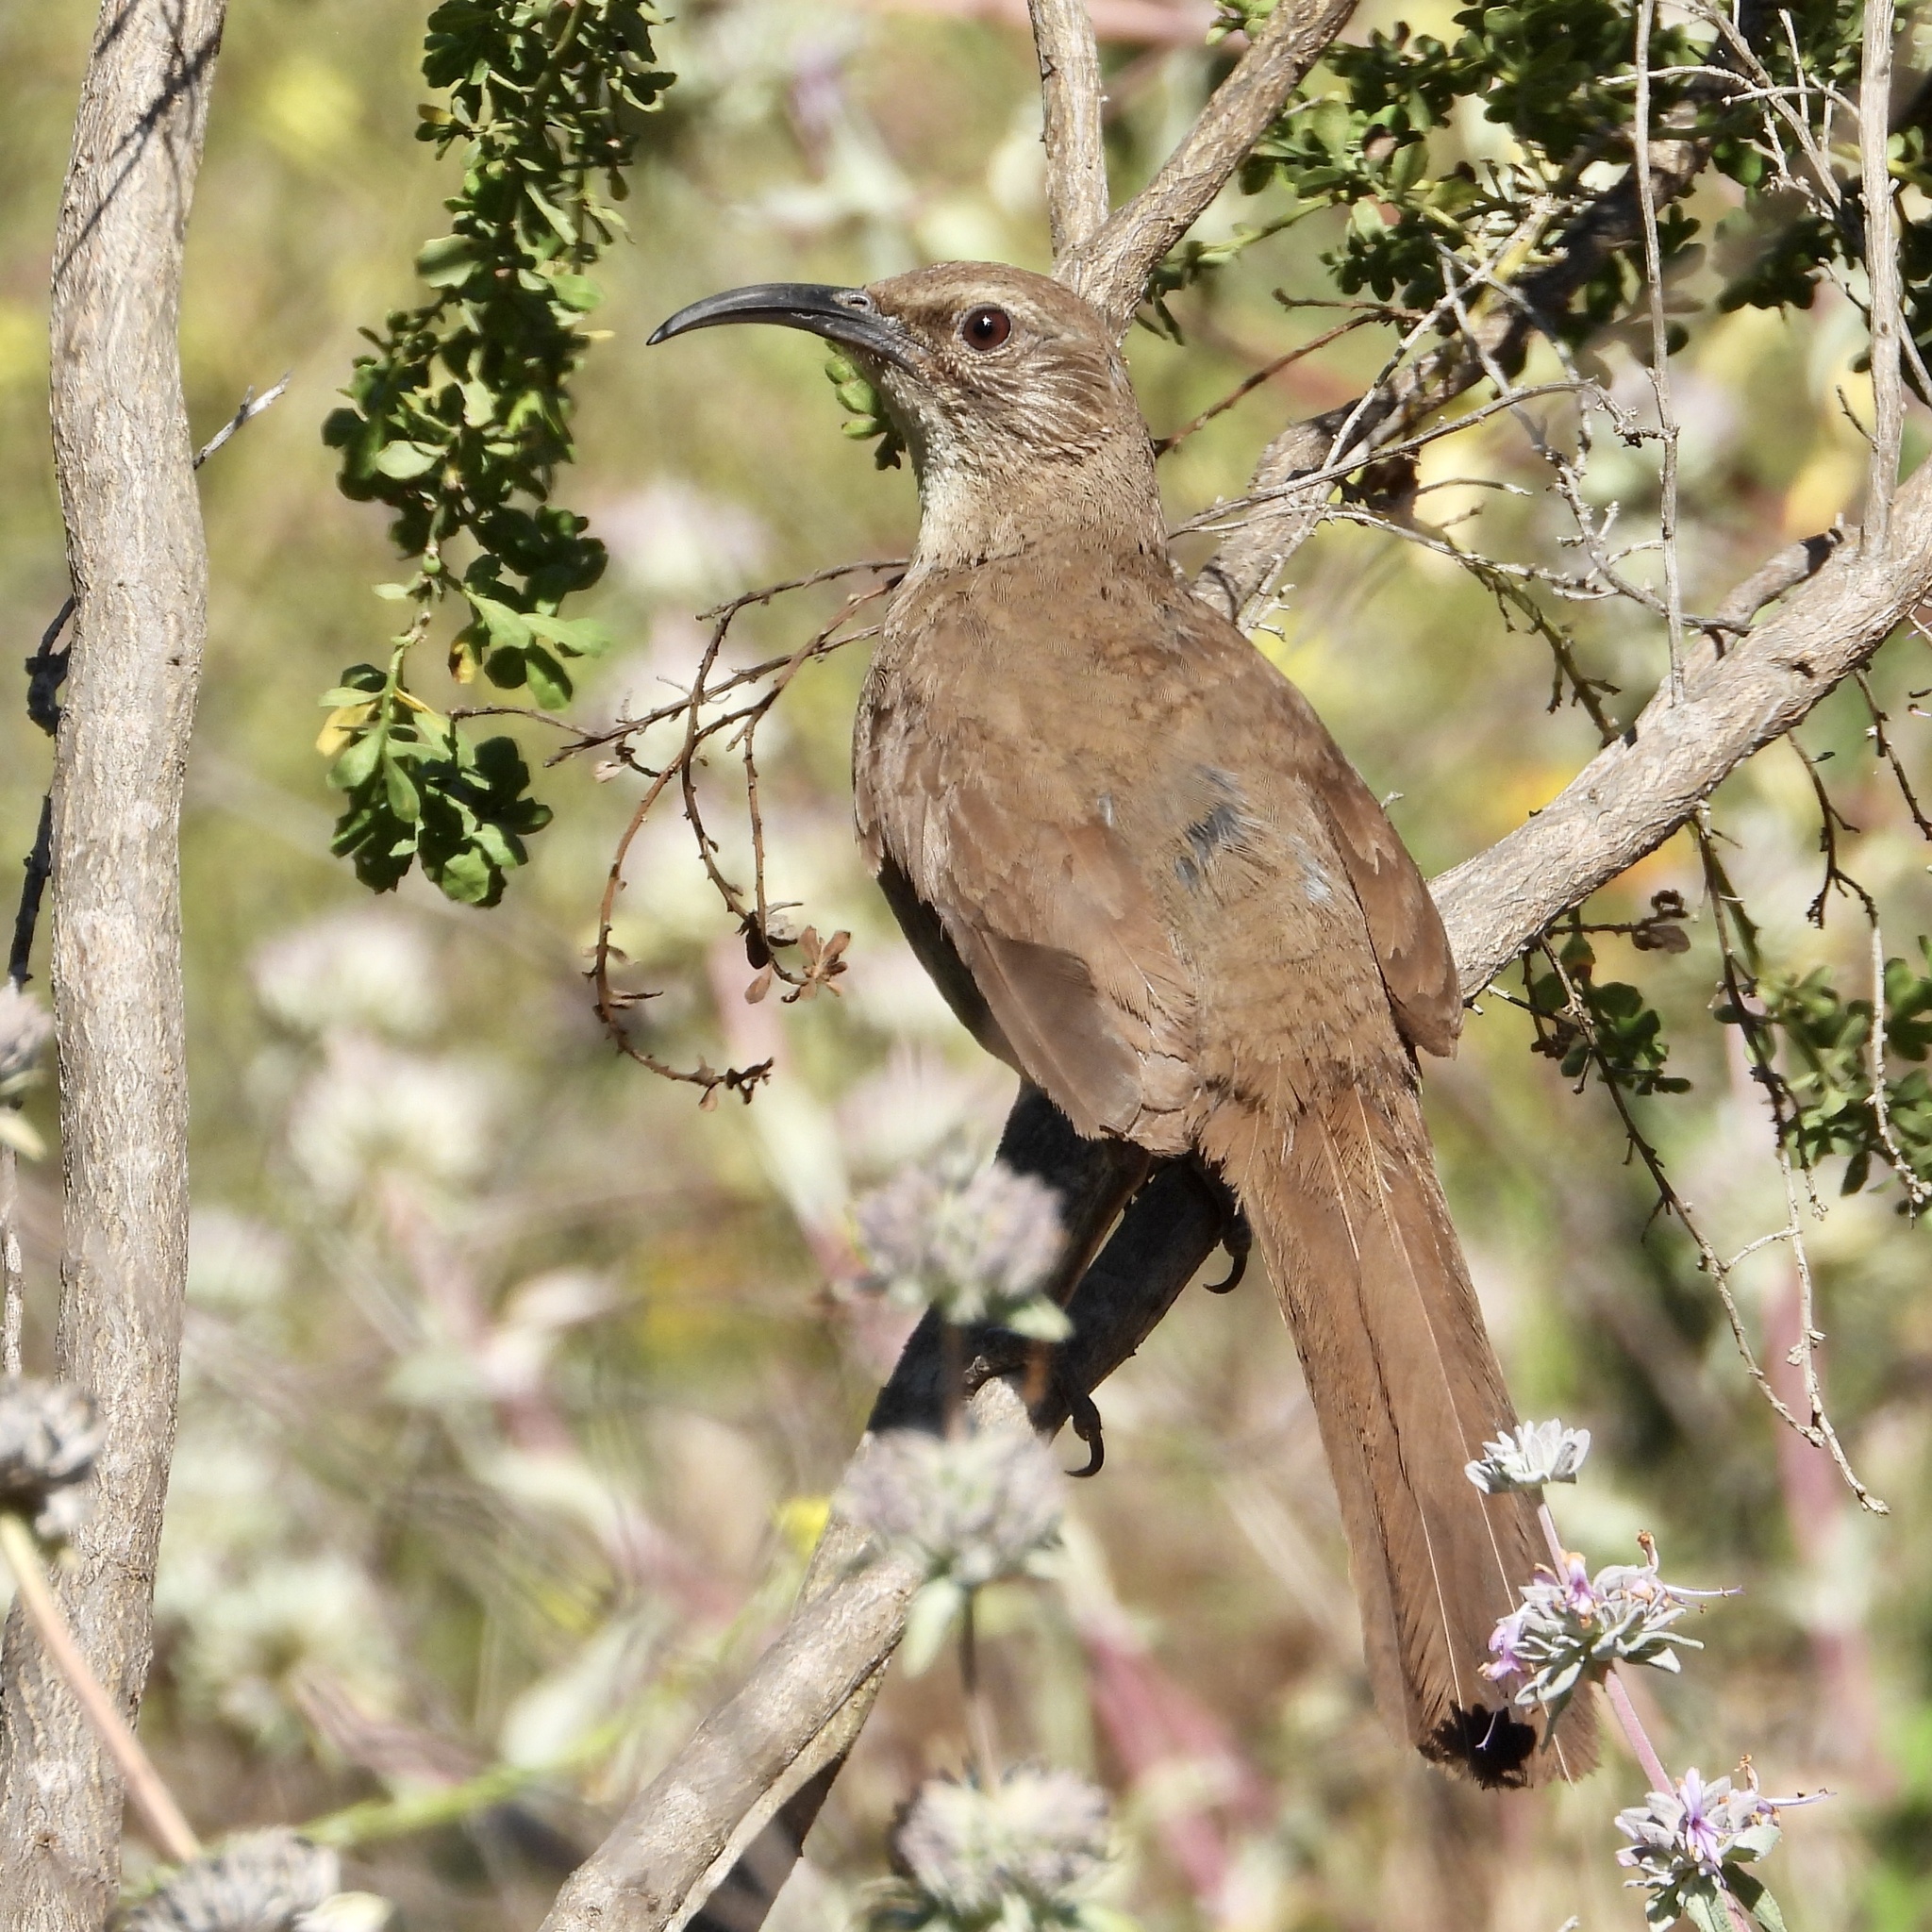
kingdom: Animalia
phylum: Chordata
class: Aves
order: Passeriformes
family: Mimidae
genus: Toxostoma
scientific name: Toxostoma redivivum
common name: California thrasher
